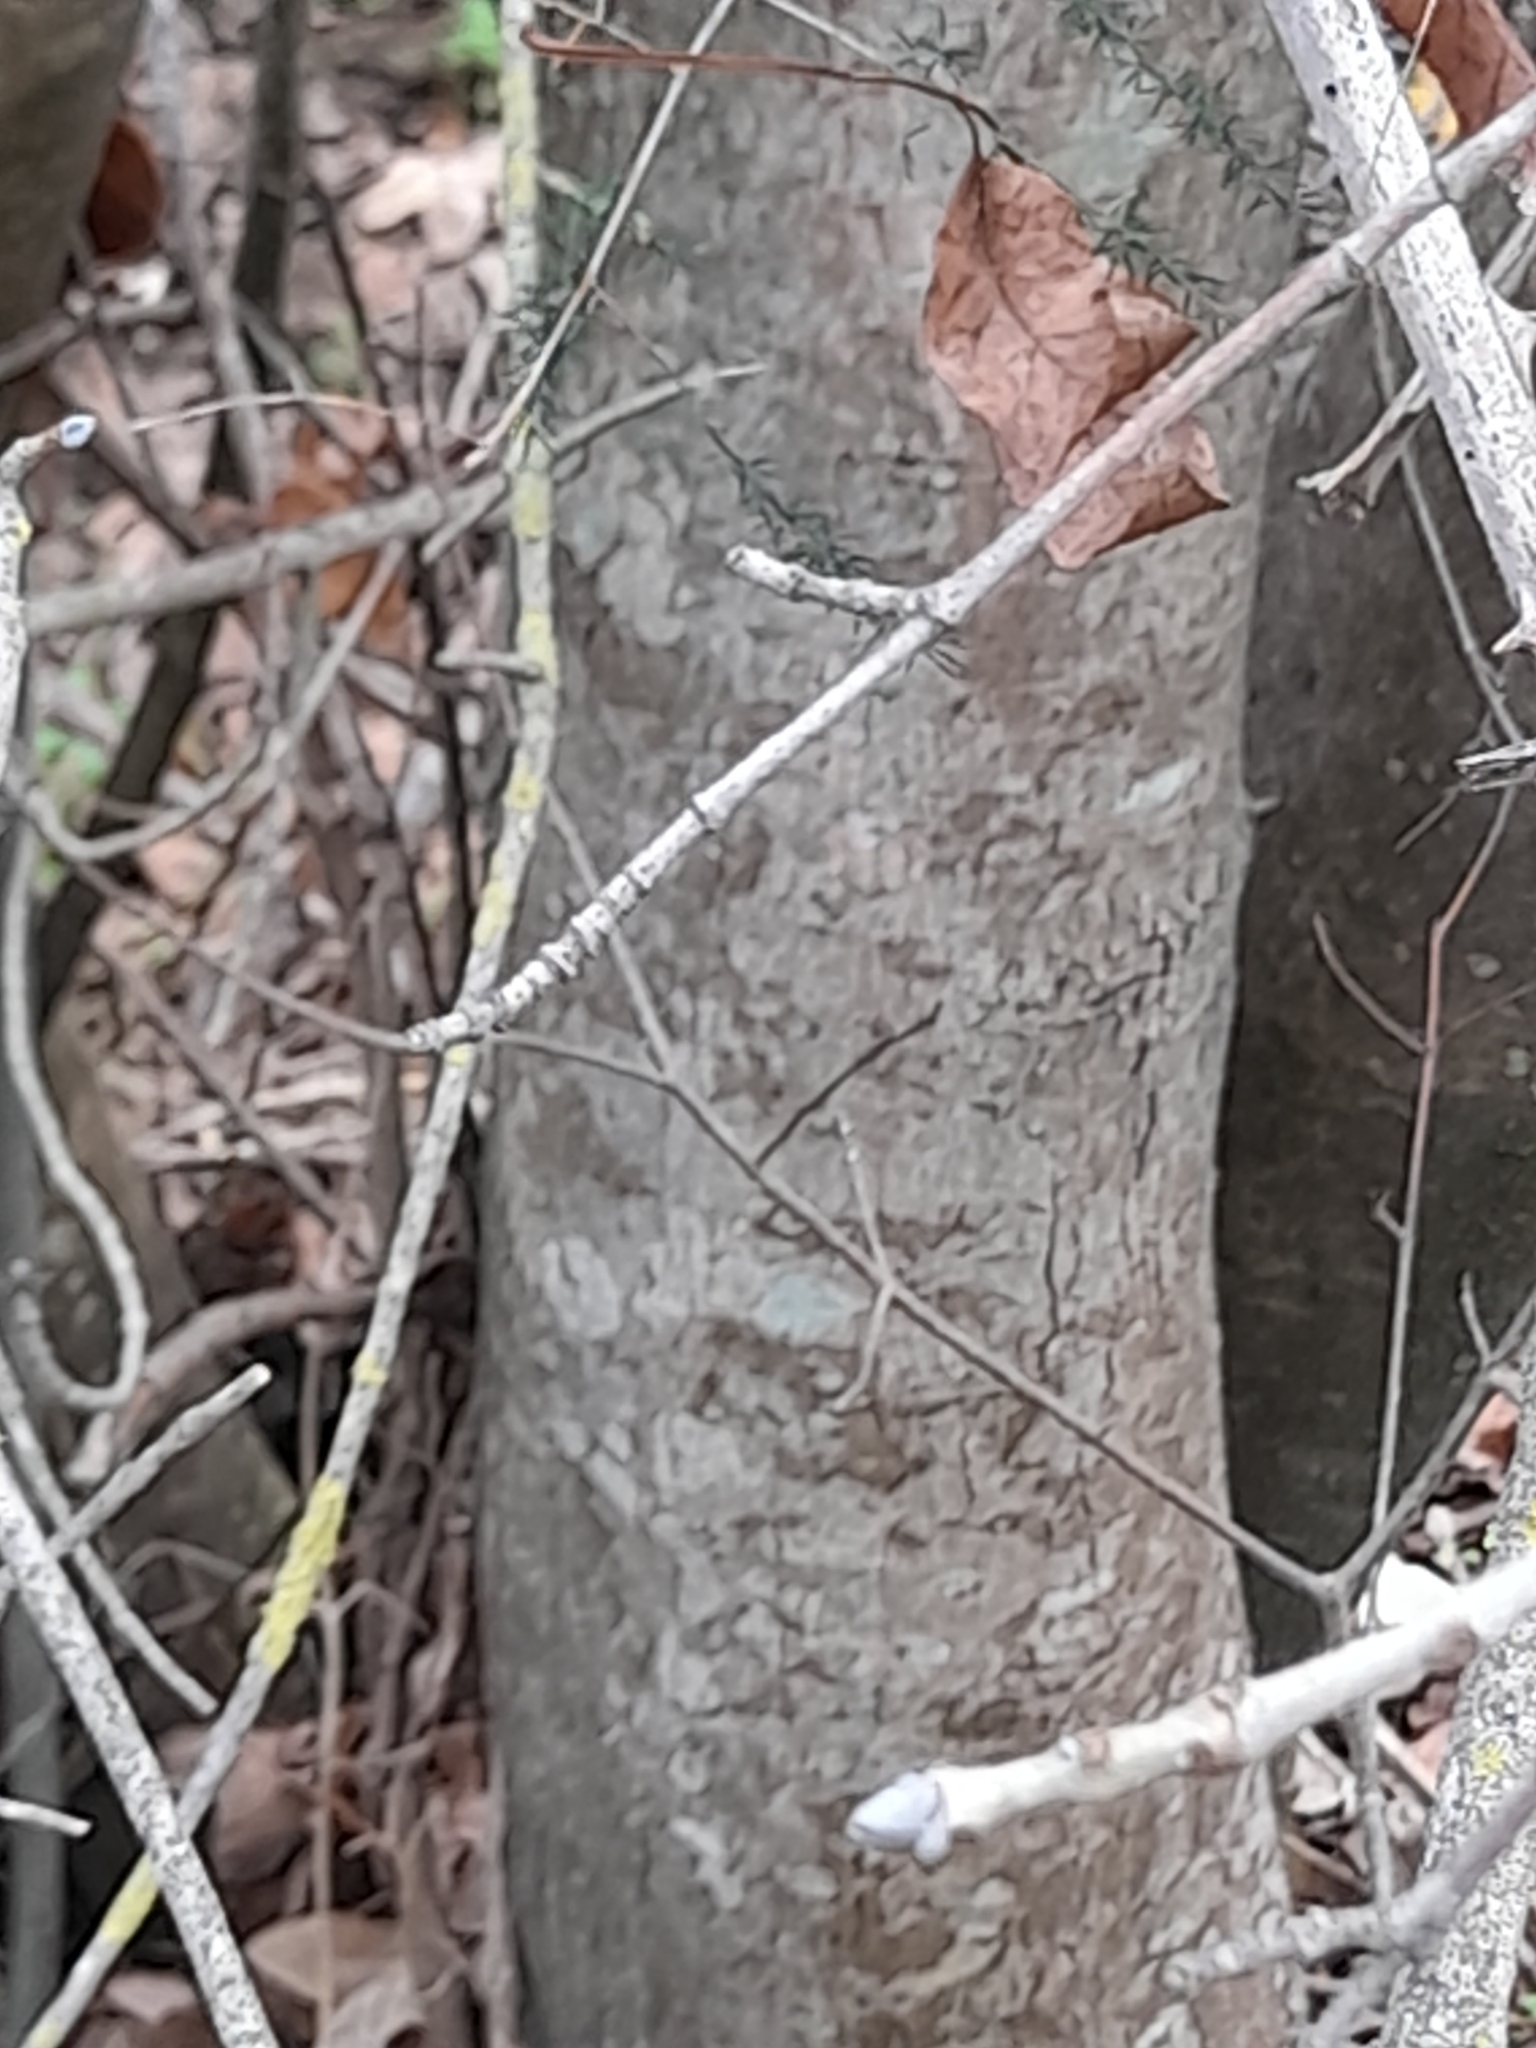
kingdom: Plantae
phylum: Tracheophyta
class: Magnoliopsida
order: Sapindales
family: Sapindaceae
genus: Acer
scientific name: Acer monspessulanum
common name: Montpellier maple
